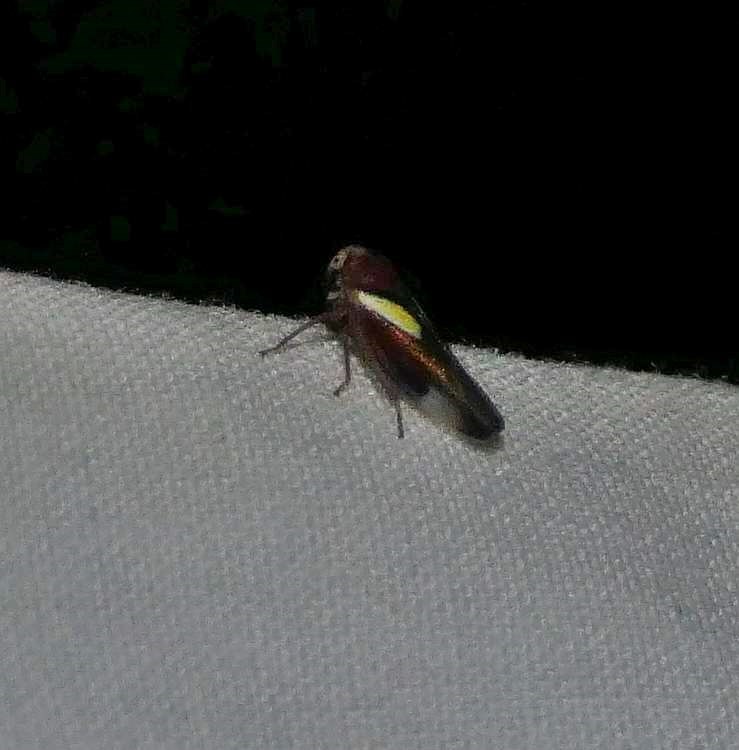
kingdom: Animalia
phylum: Arthropoda
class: Insecta
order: Hemiptera
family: Cicadellidae
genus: Balcanocerus
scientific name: Balcanocerus provancheri
